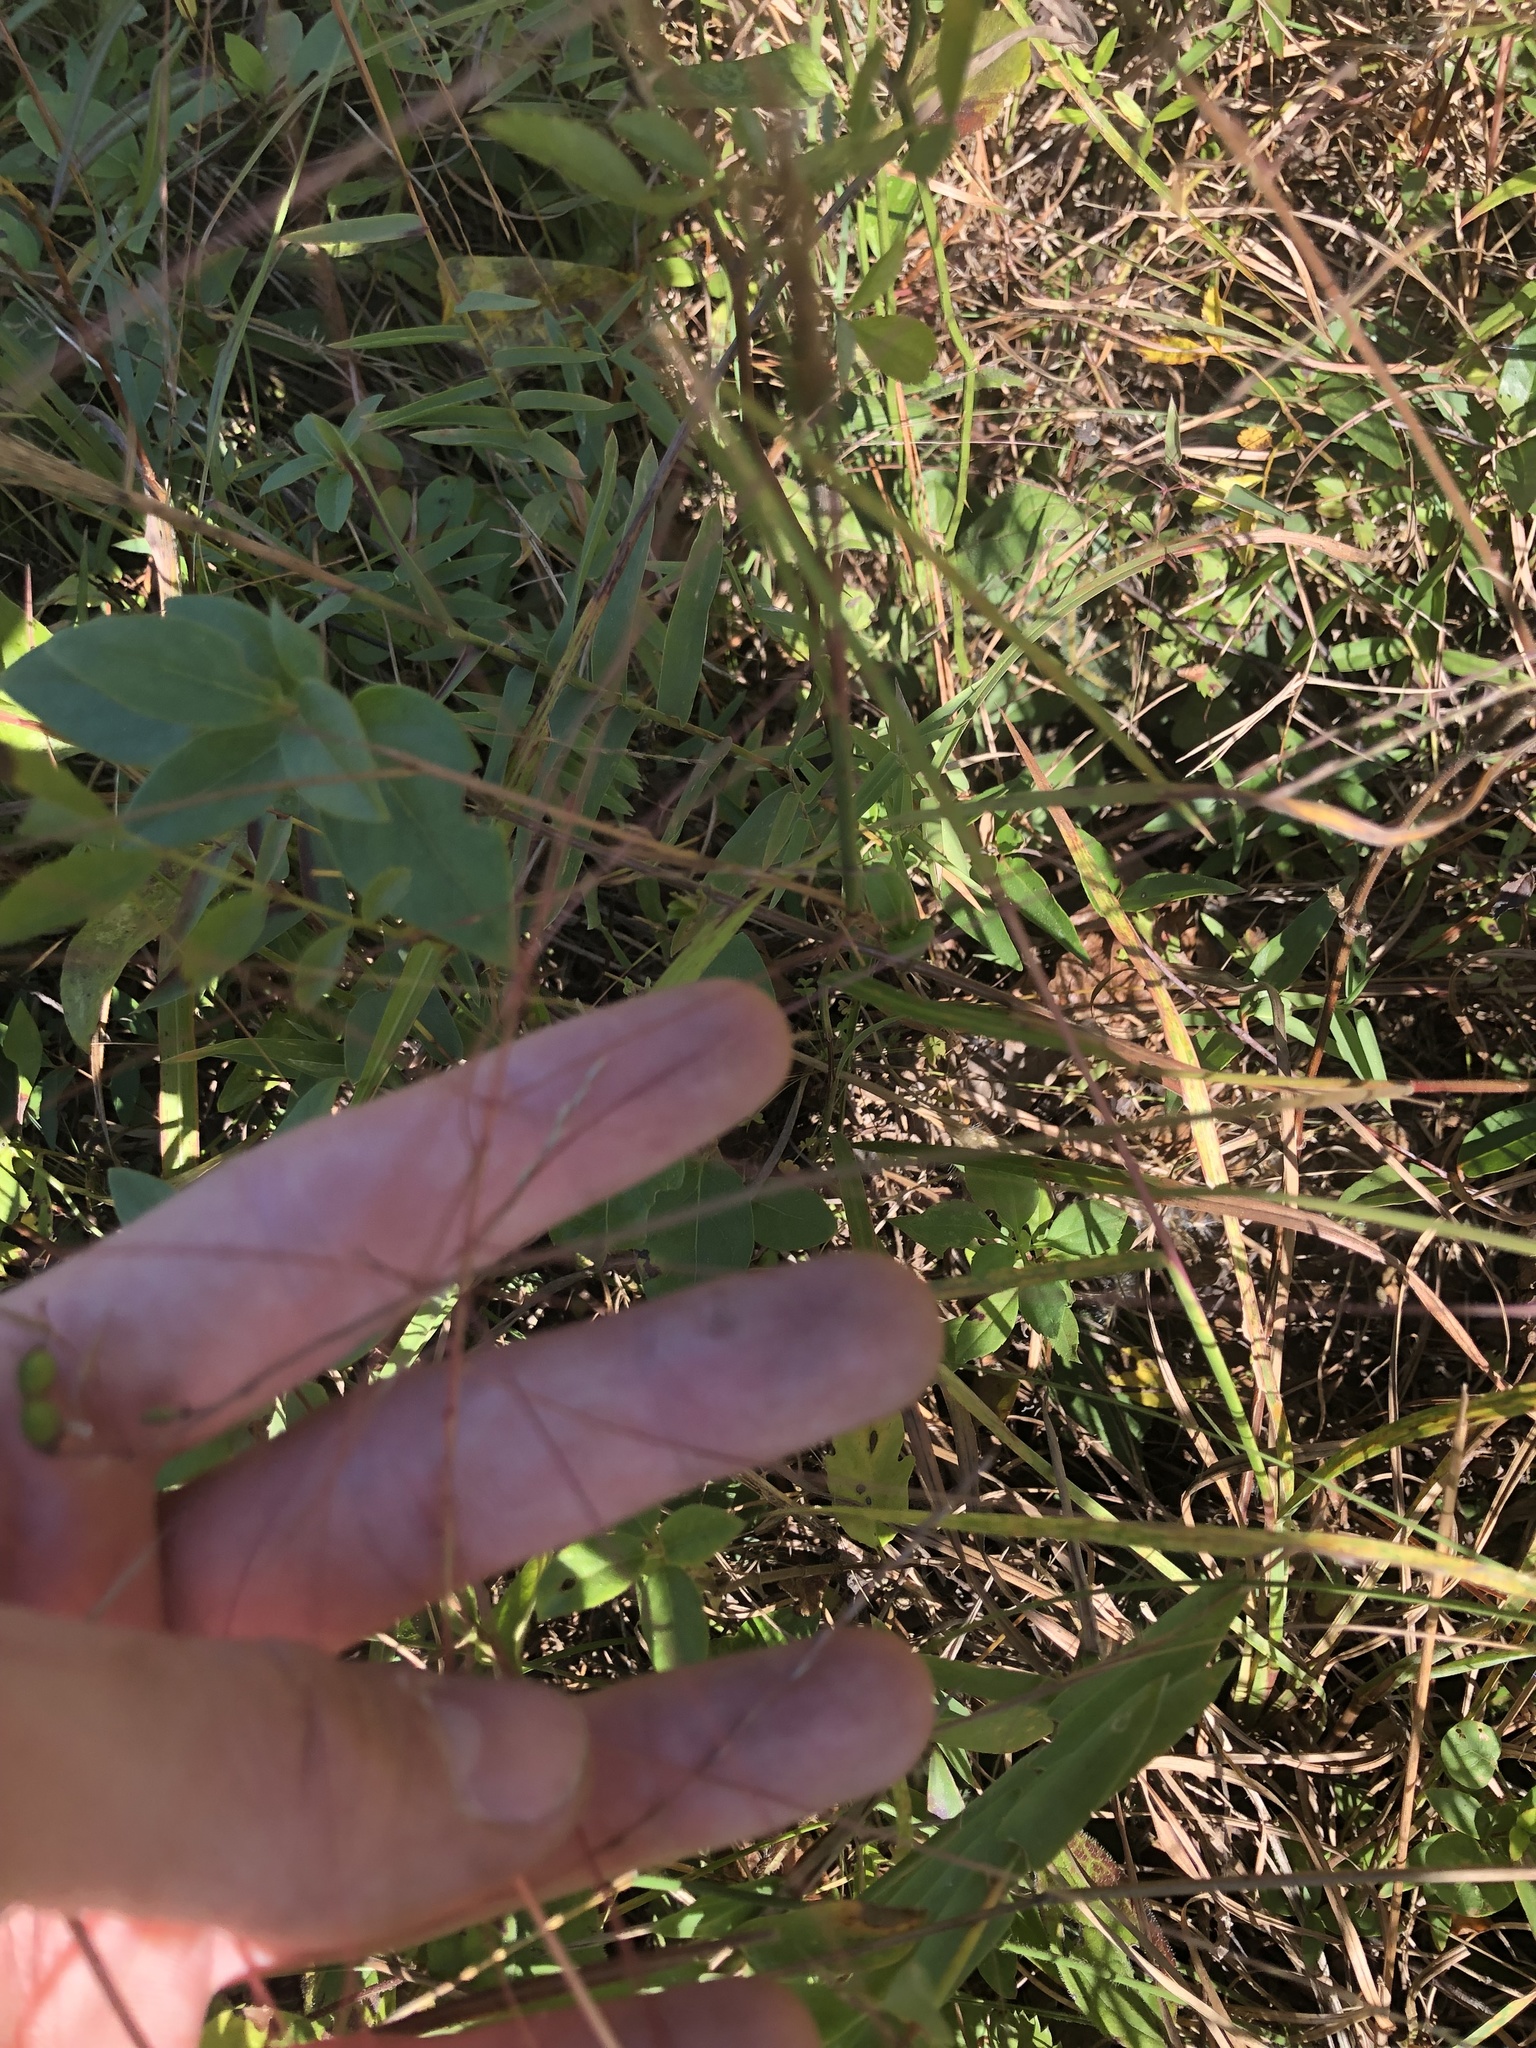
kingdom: Plantae
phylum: Tracheophyta
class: Liliopsida
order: Poales
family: Poaceae
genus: Gymnopogon
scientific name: Gymnopogon ambiguus
